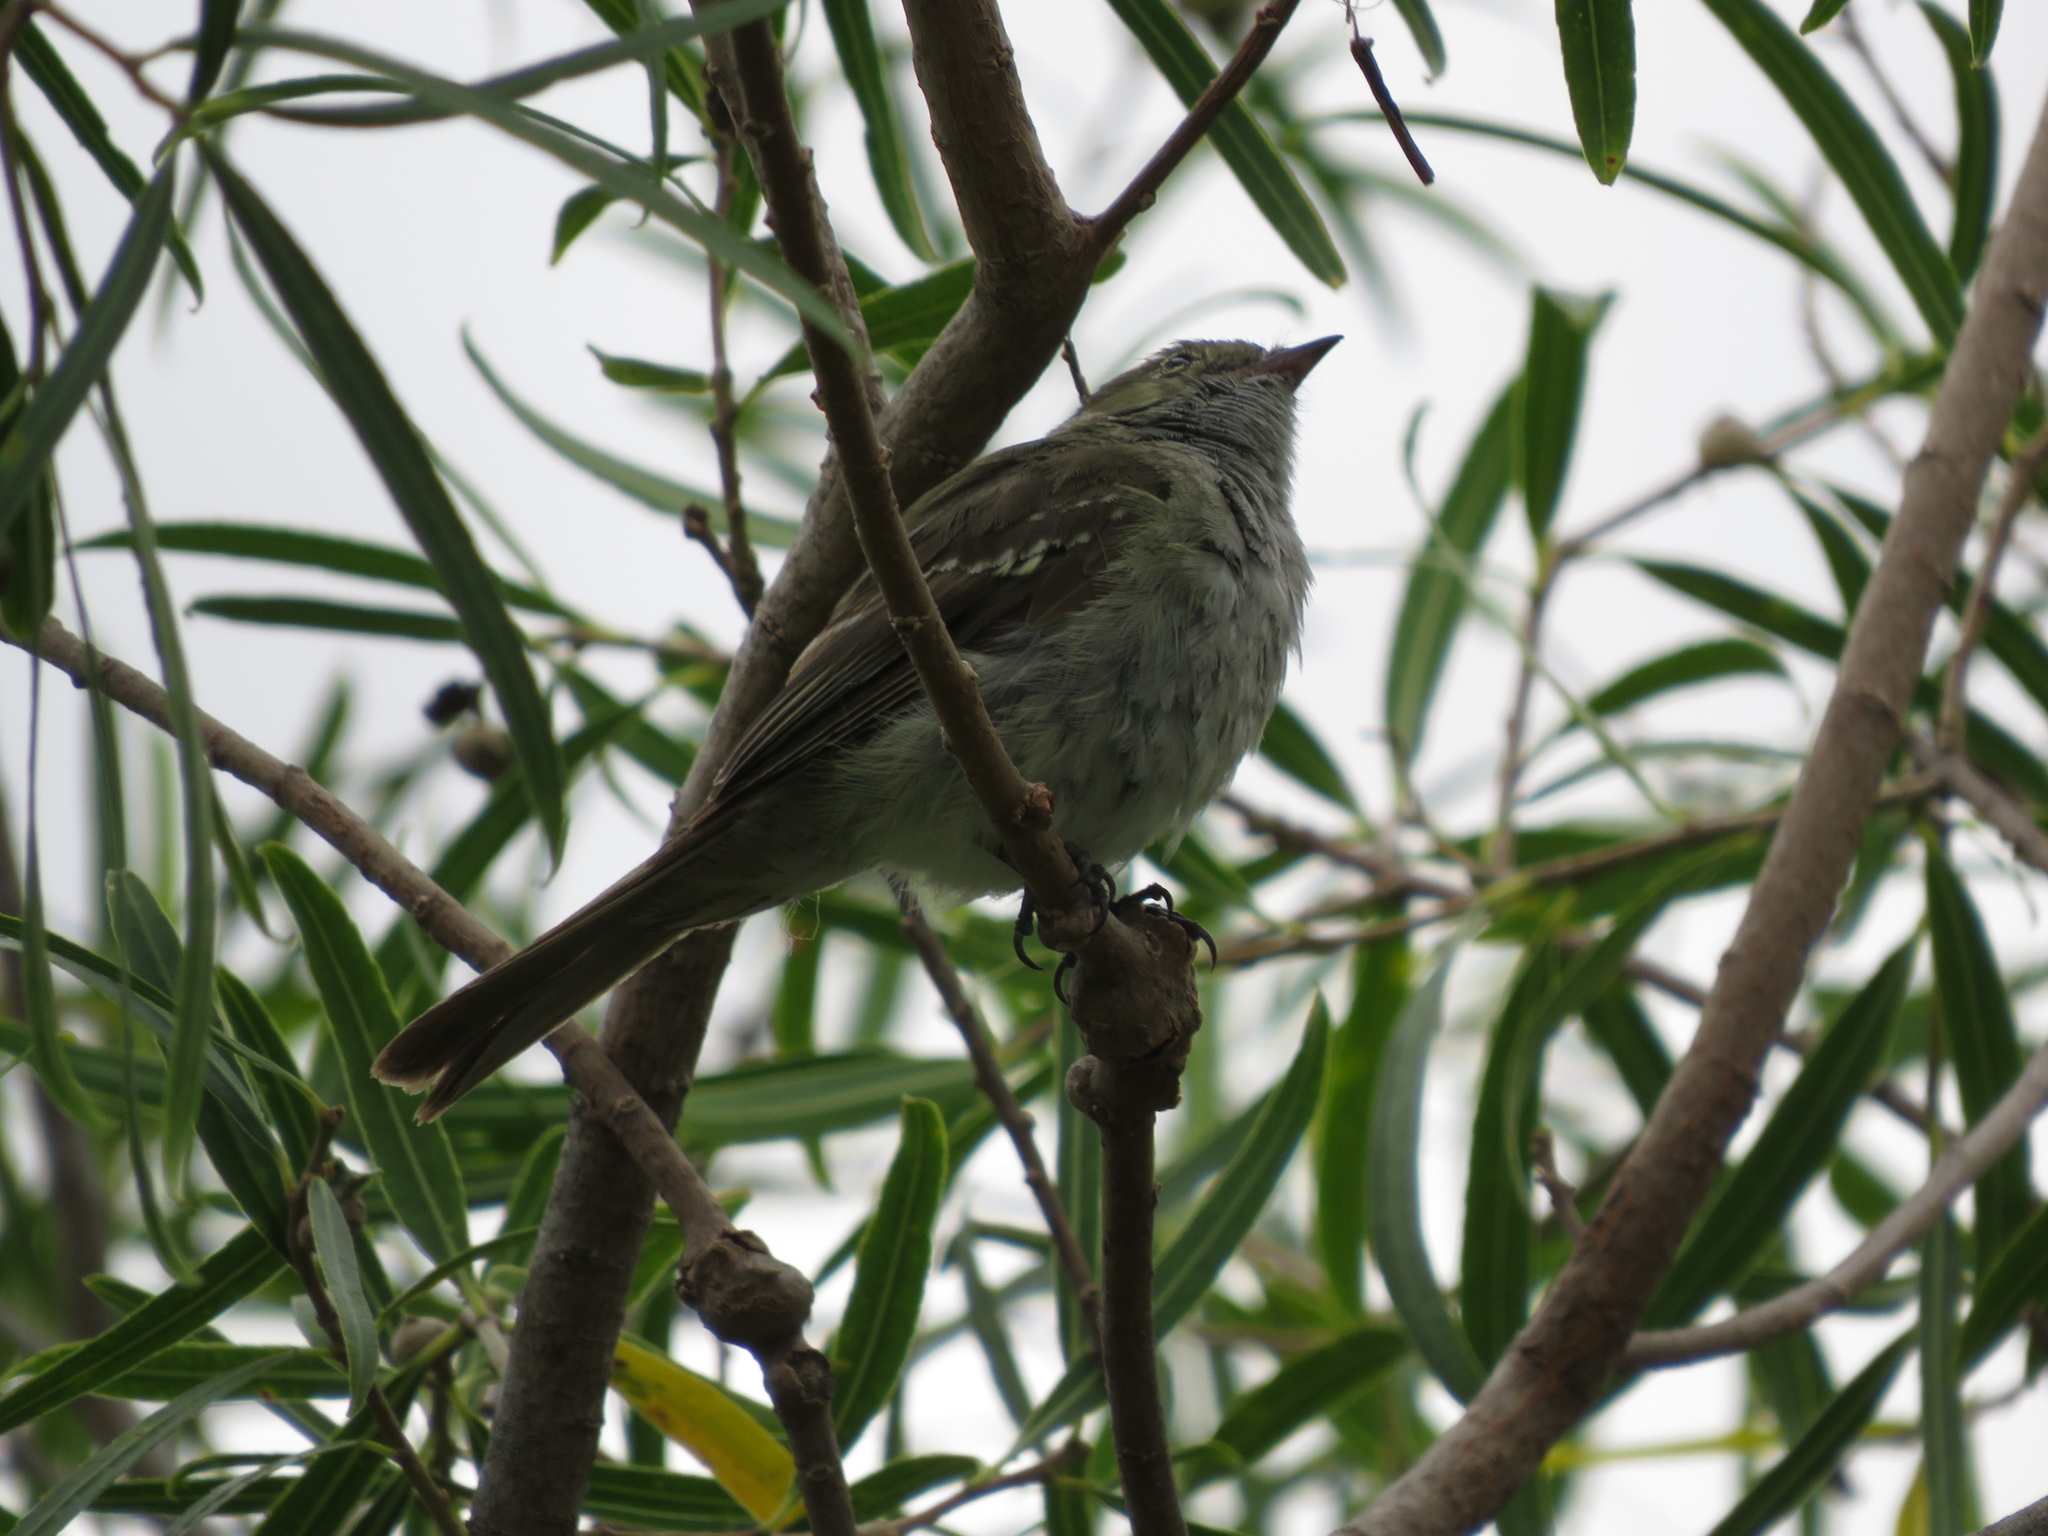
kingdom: Animalia
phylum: Chordata
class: Aves
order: Passeriformes
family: Tyrannidae
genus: Elaenia
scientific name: Elaenia parvirostris
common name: Small-billed elaenia
